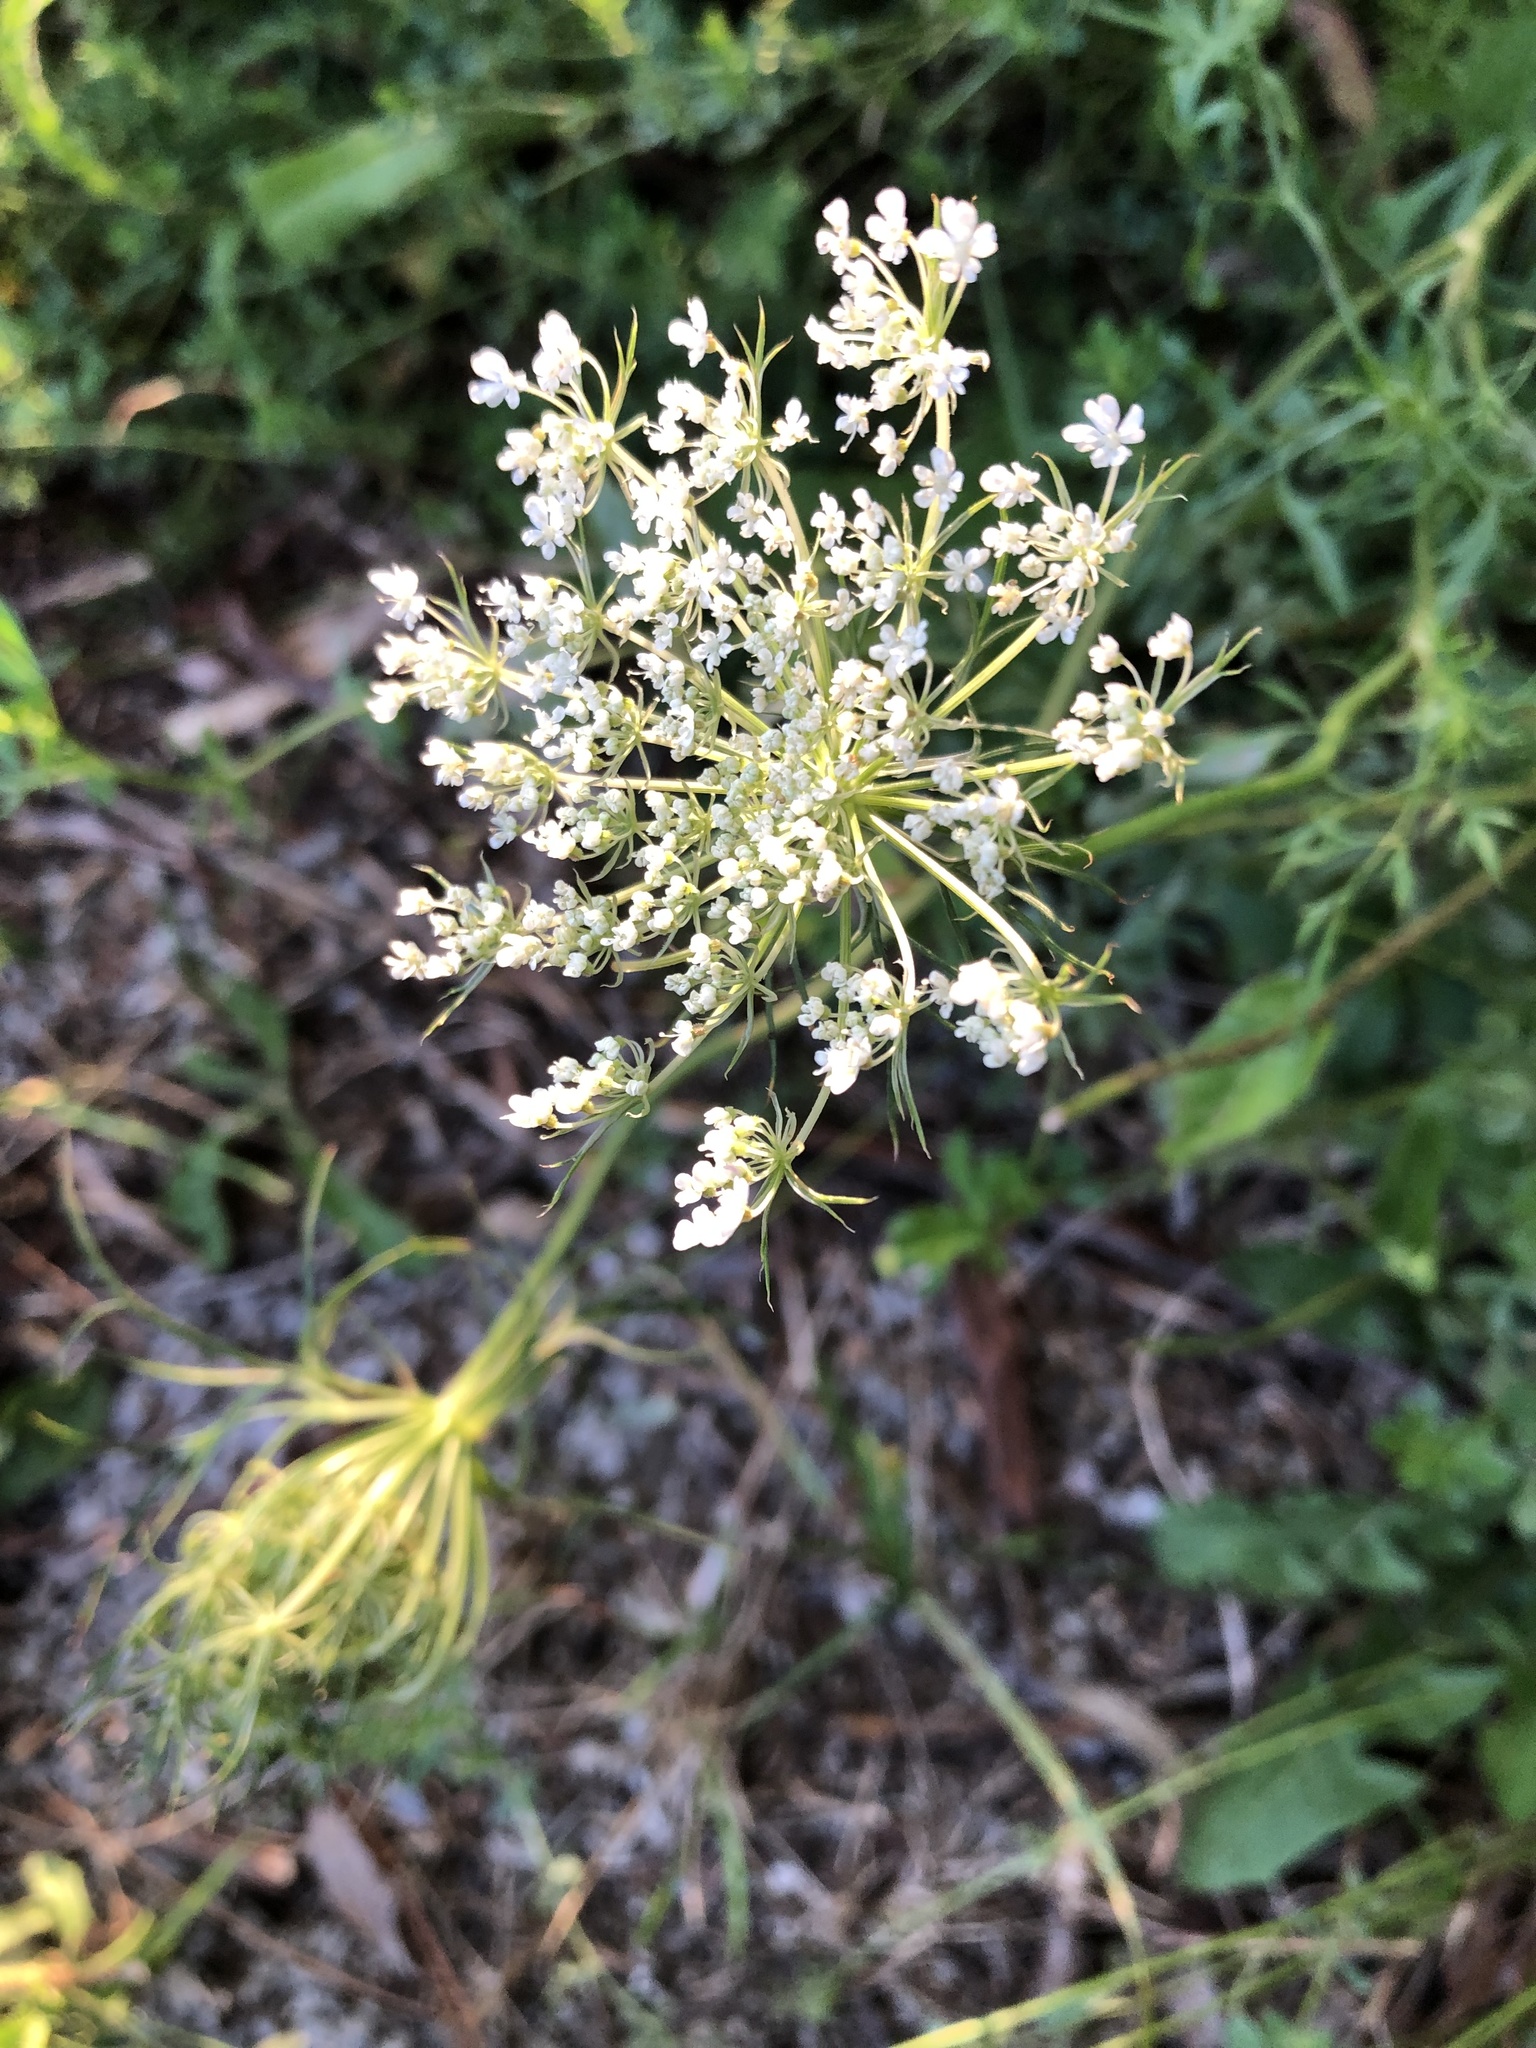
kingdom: Plantae
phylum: Tracheophyta
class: Magnoliopsida
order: Apiales
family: Apiaceae
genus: Daucus
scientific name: Daucus carota
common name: Wild carrot
